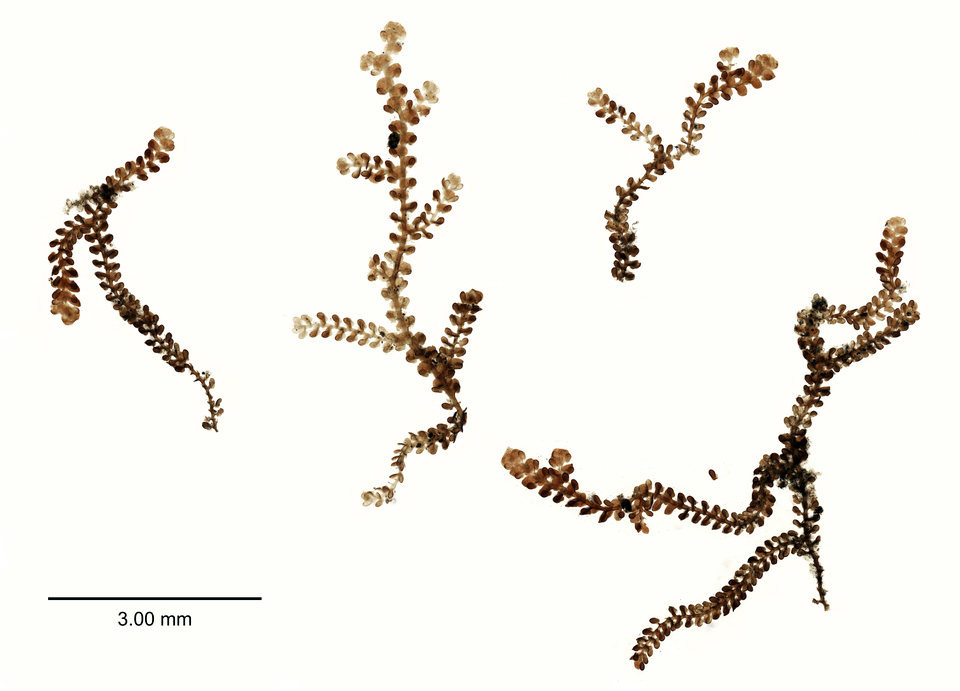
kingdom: Plantae
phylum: Marchantiophyta
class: Jungermanniopsida
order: Porellales
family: Frullaniaceae
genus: Frullania
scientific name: Frullania rostrata
